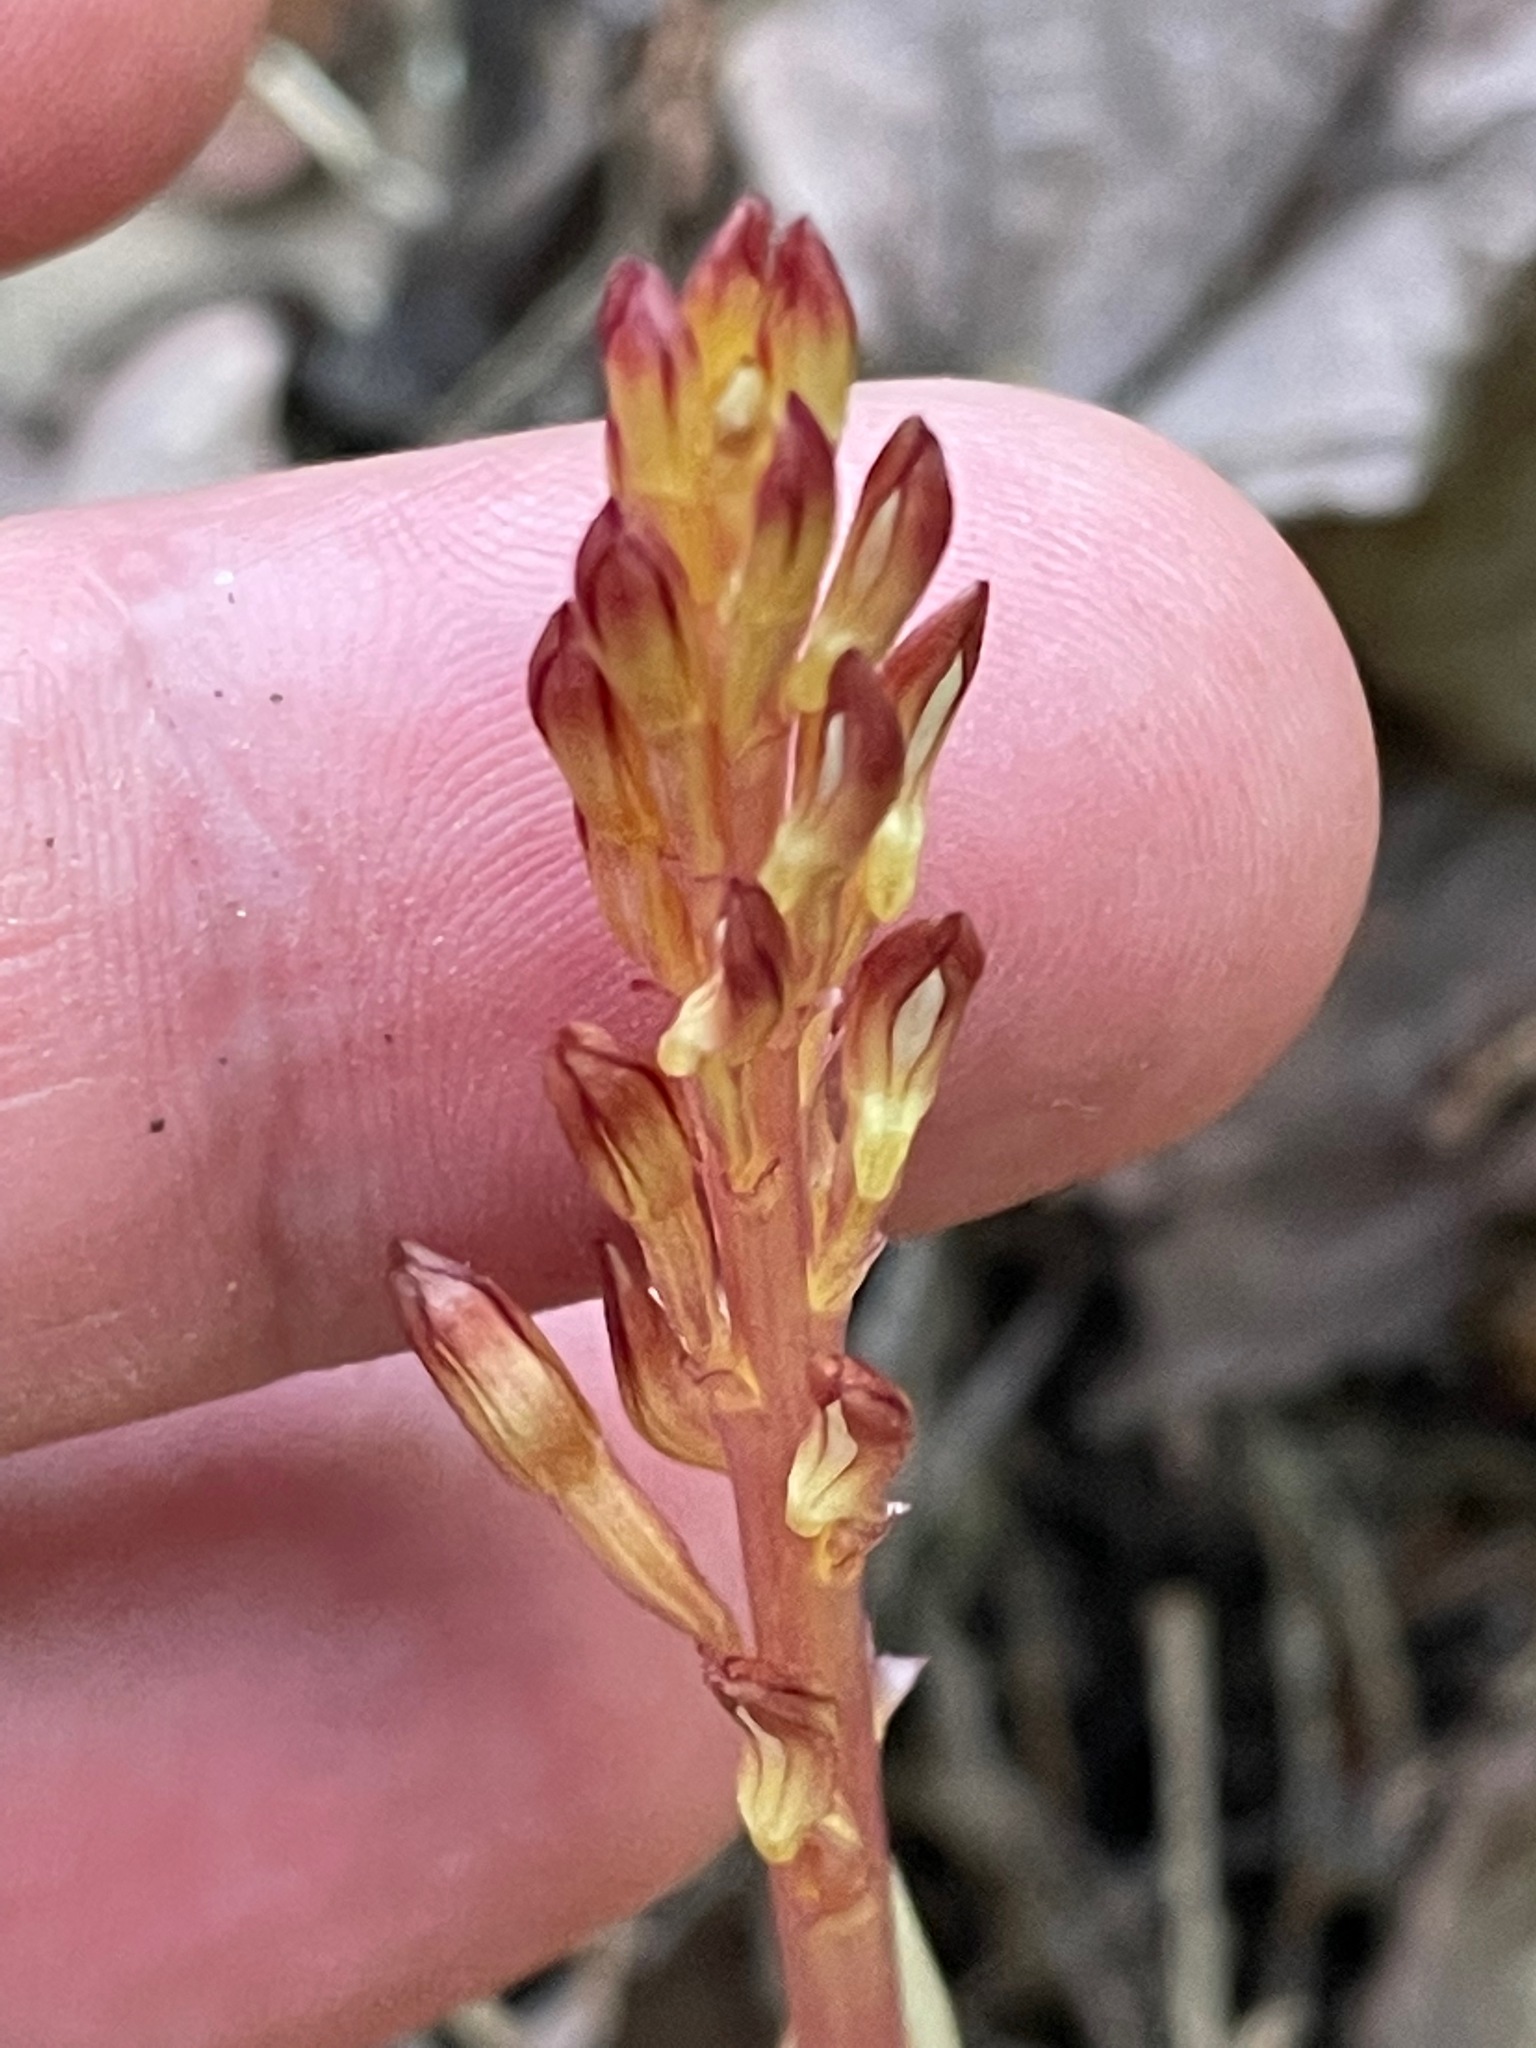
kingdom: Plantae
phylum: Tracheophyta
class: Liliopsida
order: Asparagales
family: Orchidaceae
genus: Corallorhiza
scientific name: Corallorhiza maculata
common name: Spotted coralroot
